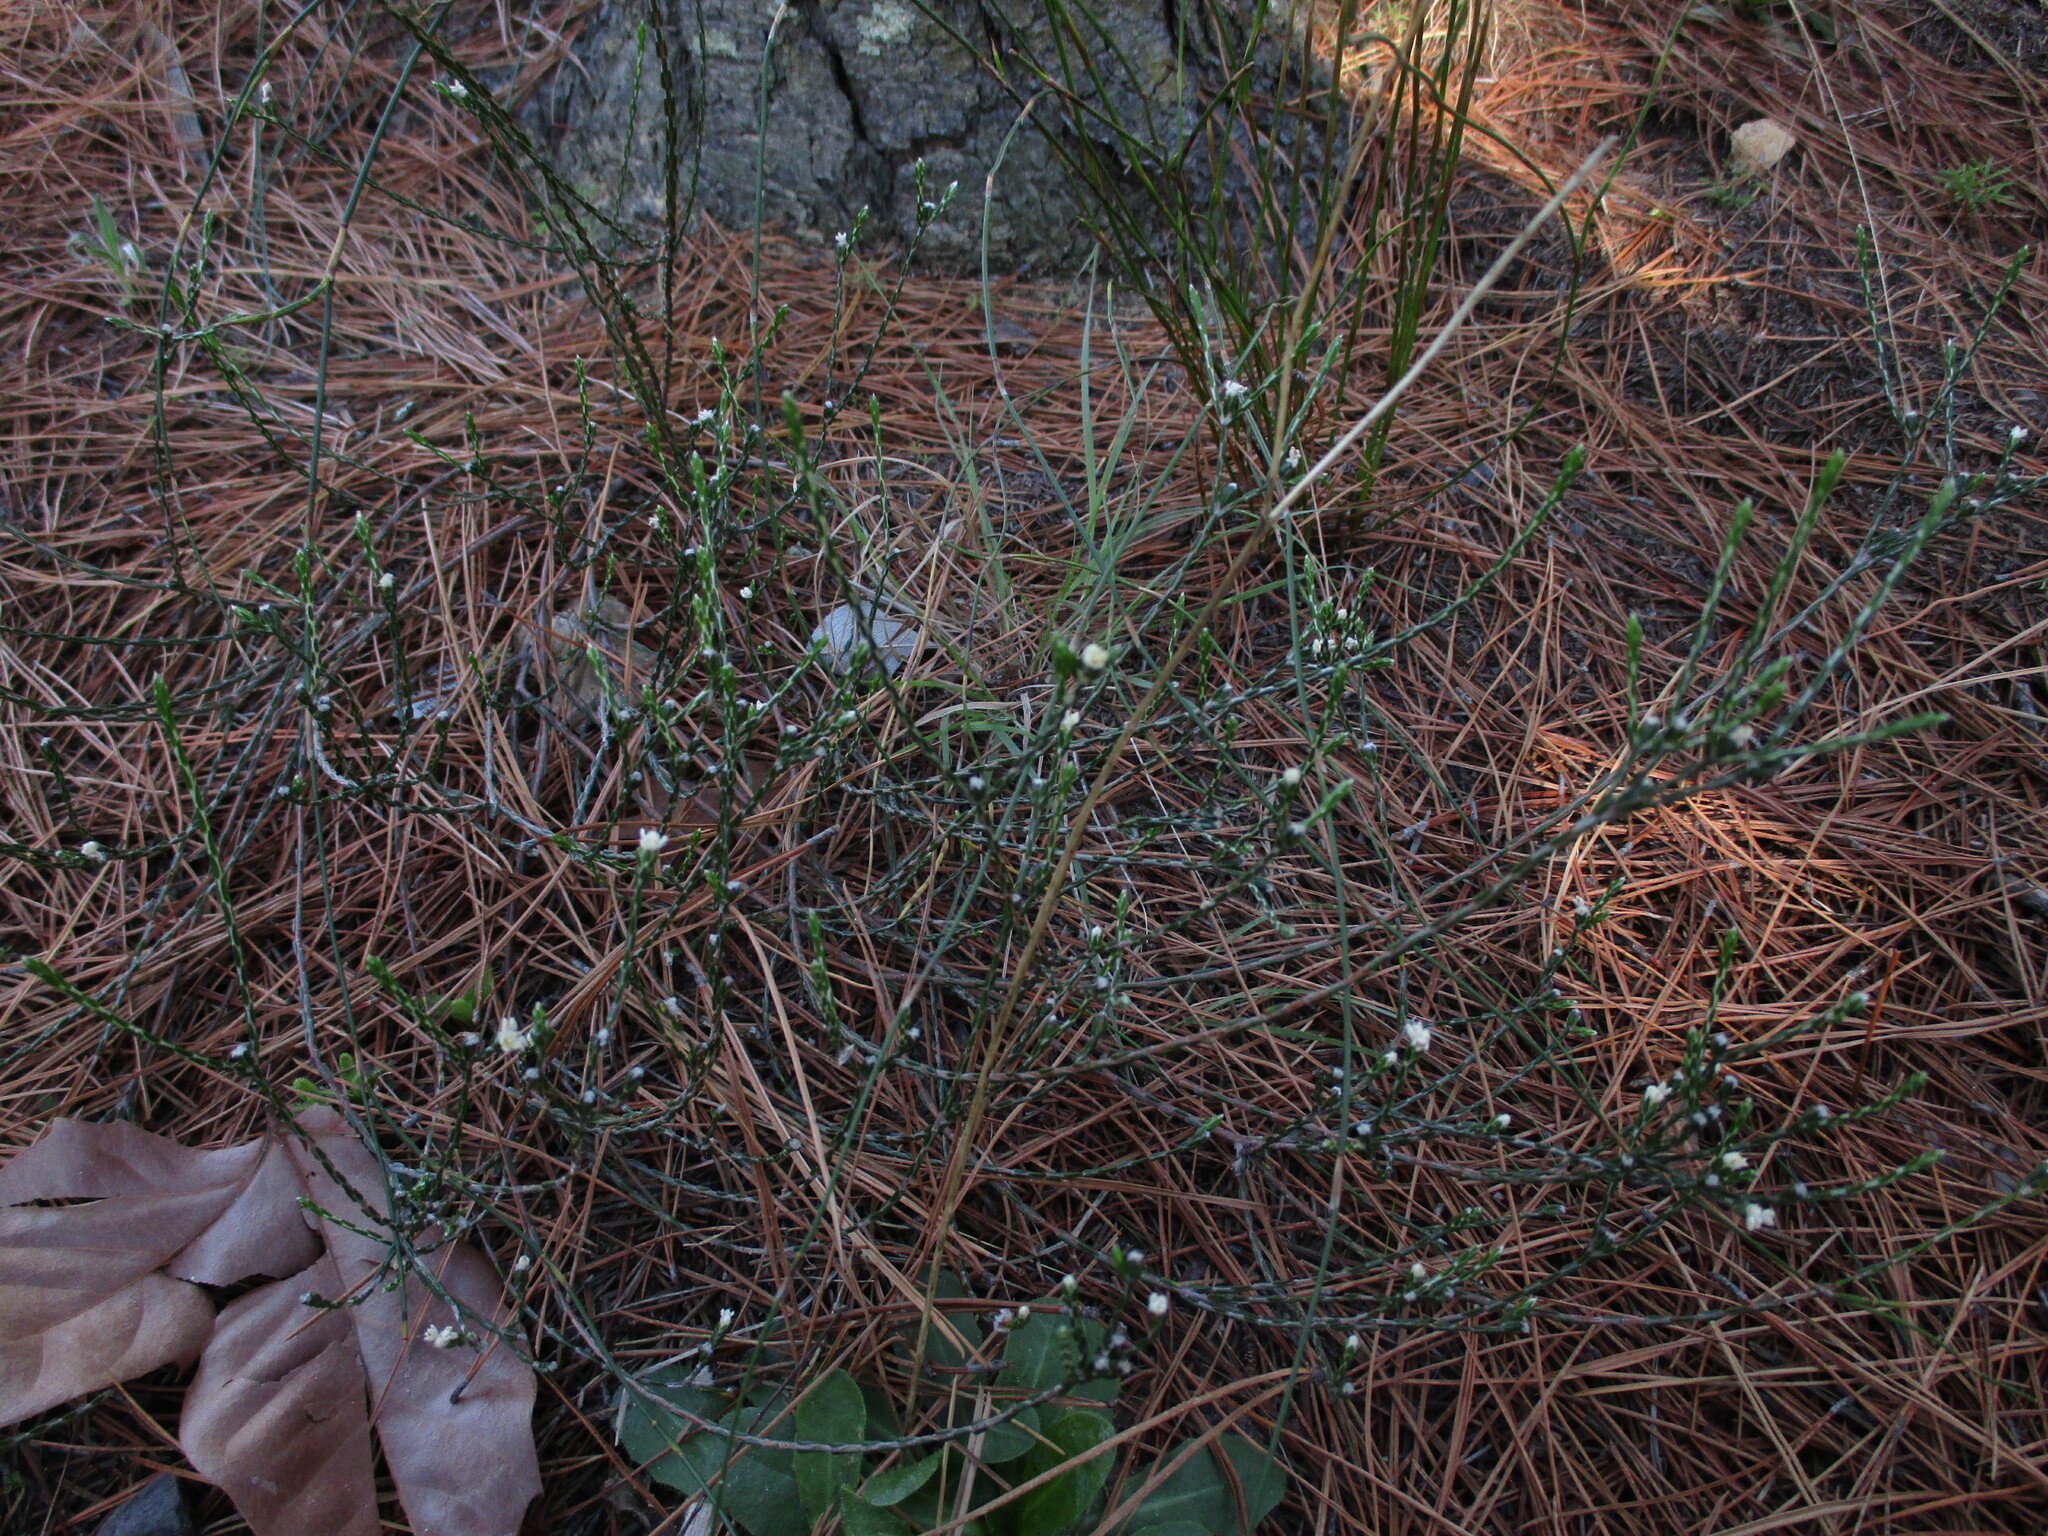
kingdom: Plantae
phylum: Tracheophyta
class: Magnoliopsida
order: Malvales
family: Thymelaeaceae
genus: Lachnaea
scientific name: Lachnaea elsieae
